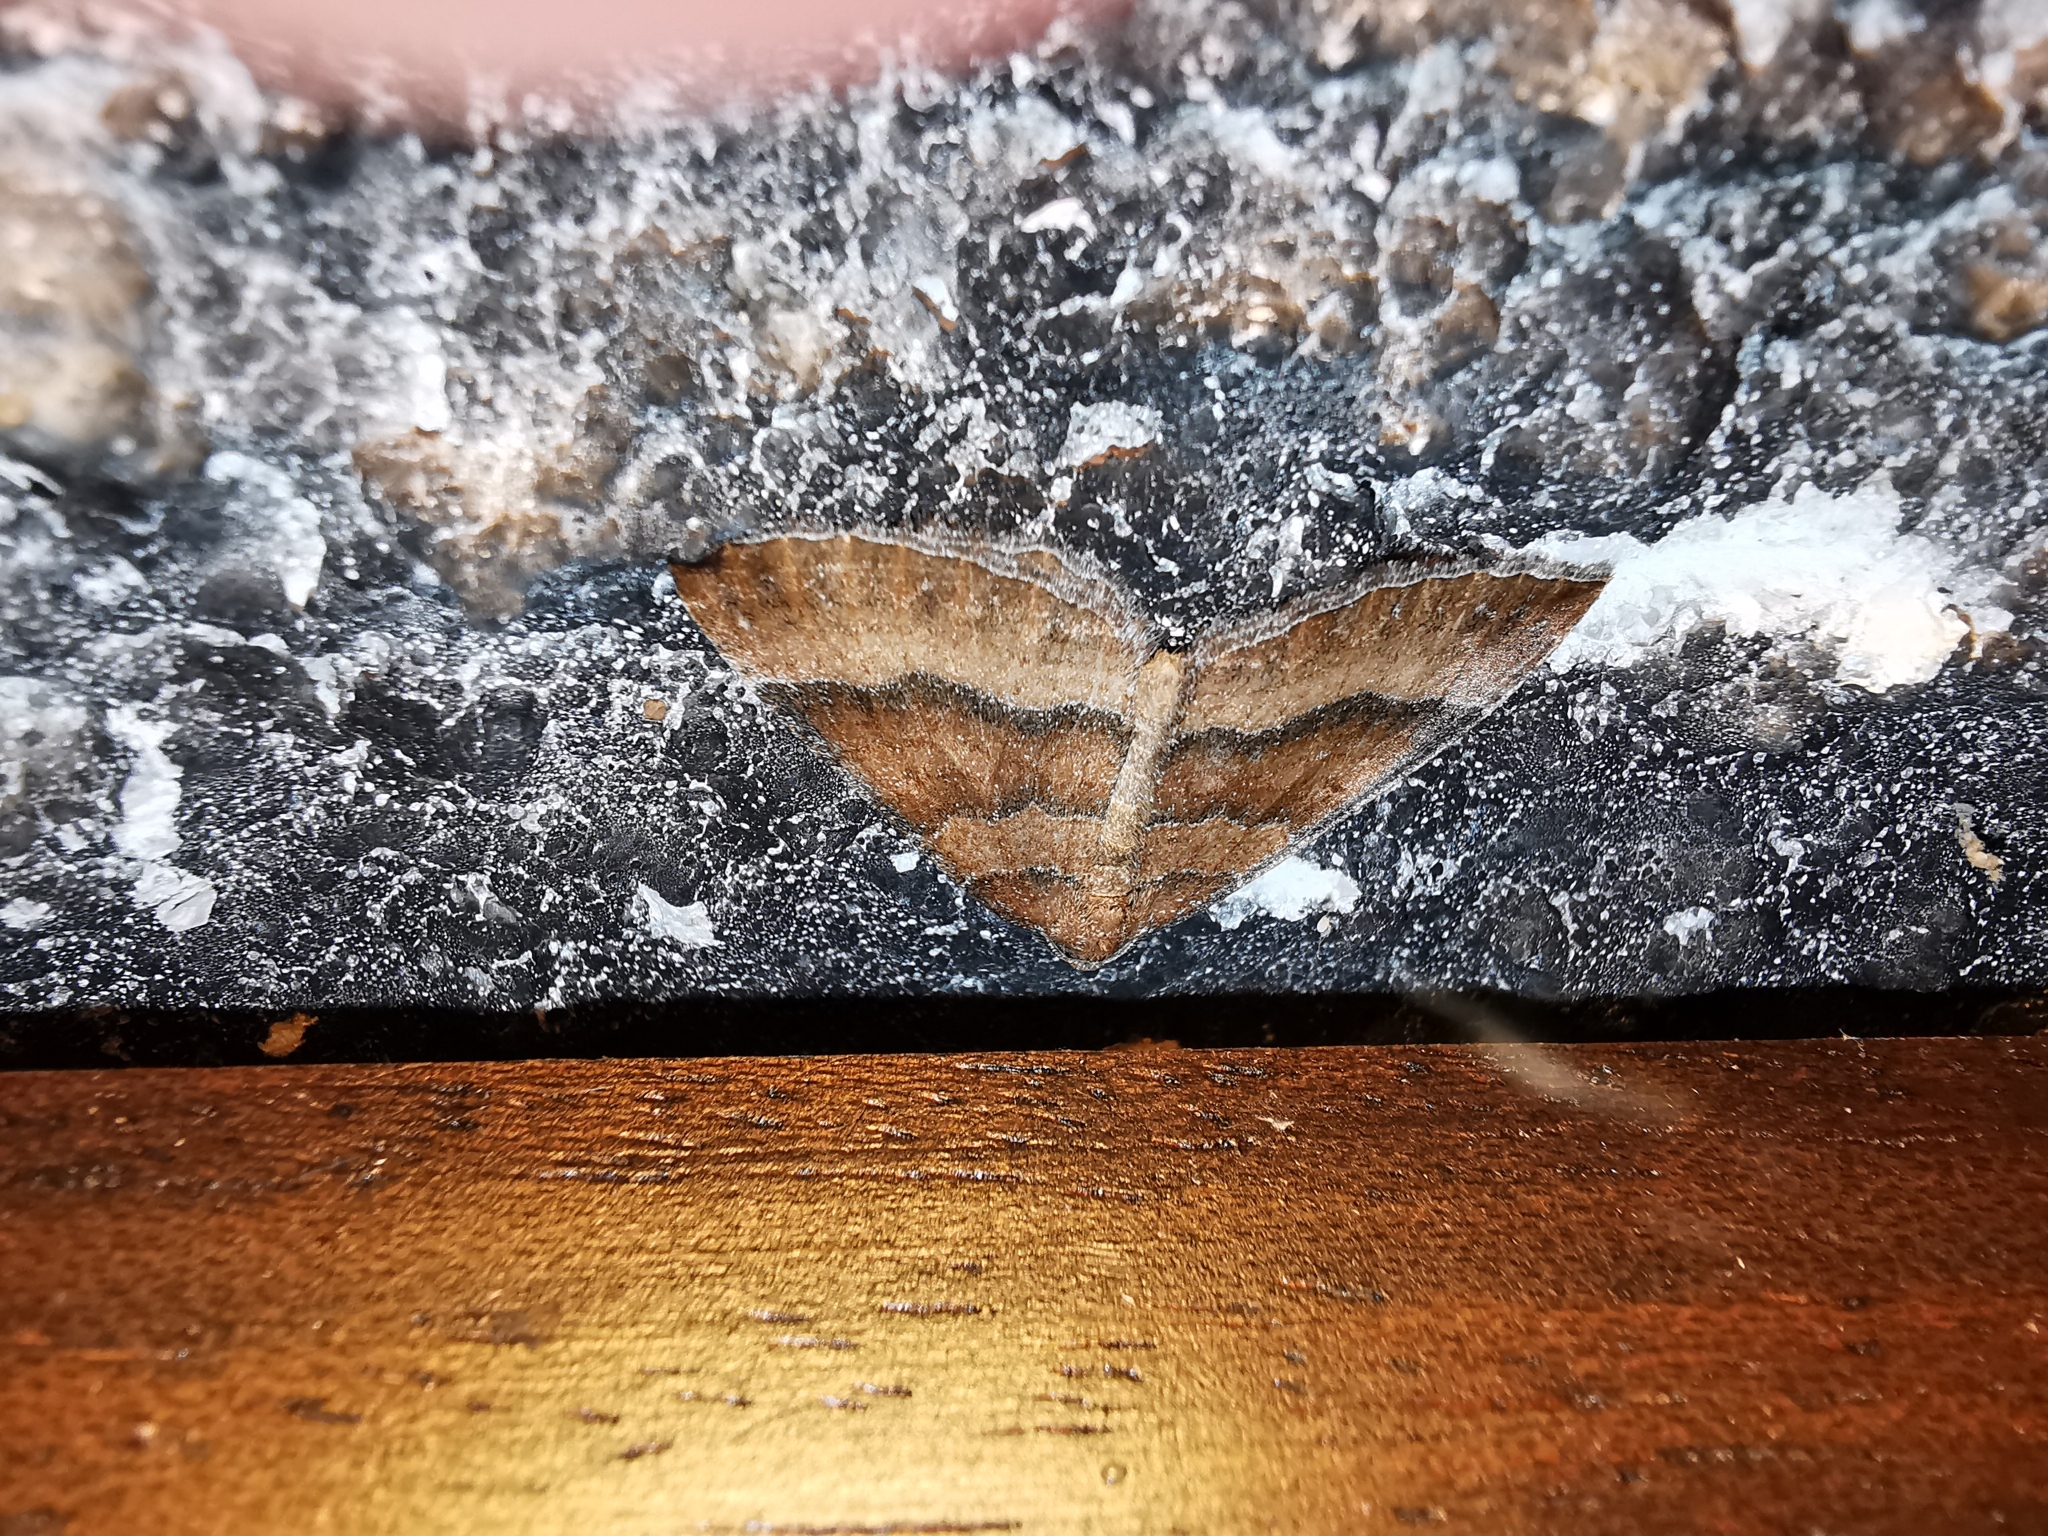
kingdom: Animalia
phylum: Arthropoda
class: Insecta
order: Lepidoptera
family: Geometridae
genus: Larentia
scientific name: Larentia clavaria
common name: Mallow
